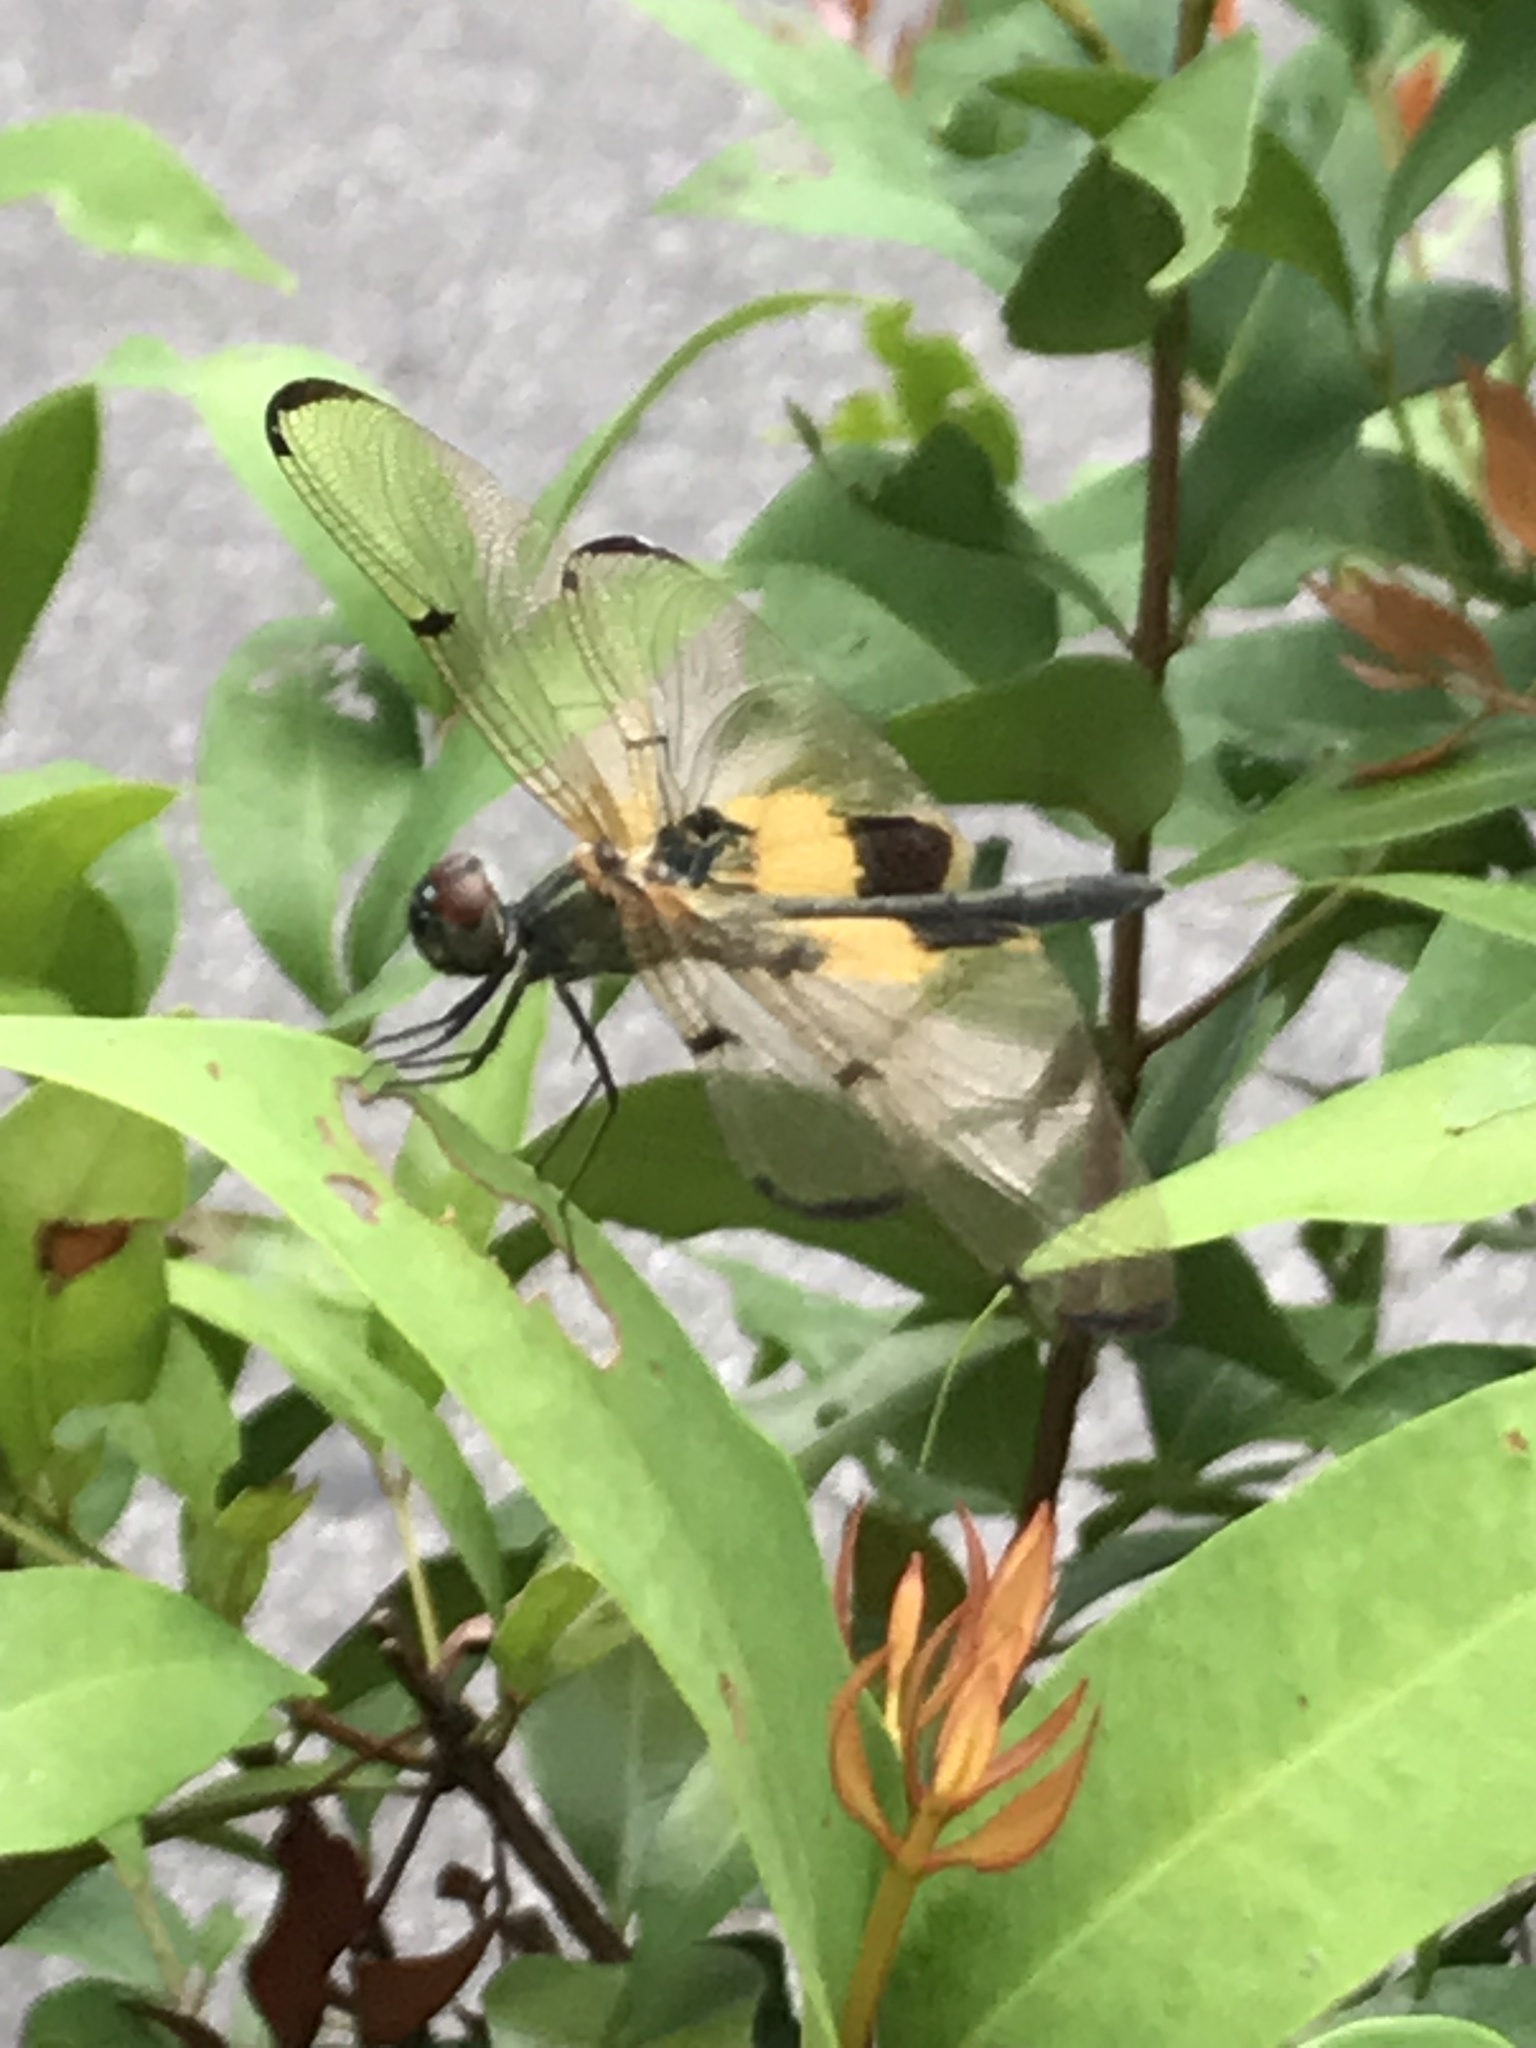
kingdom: Animalia
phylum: Arthropoda
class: Insecta
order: Odonata
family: Libellulidae
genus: Rhyothemis
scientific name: Rhyothemis phyllis
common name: Yellow-barred flutterer
